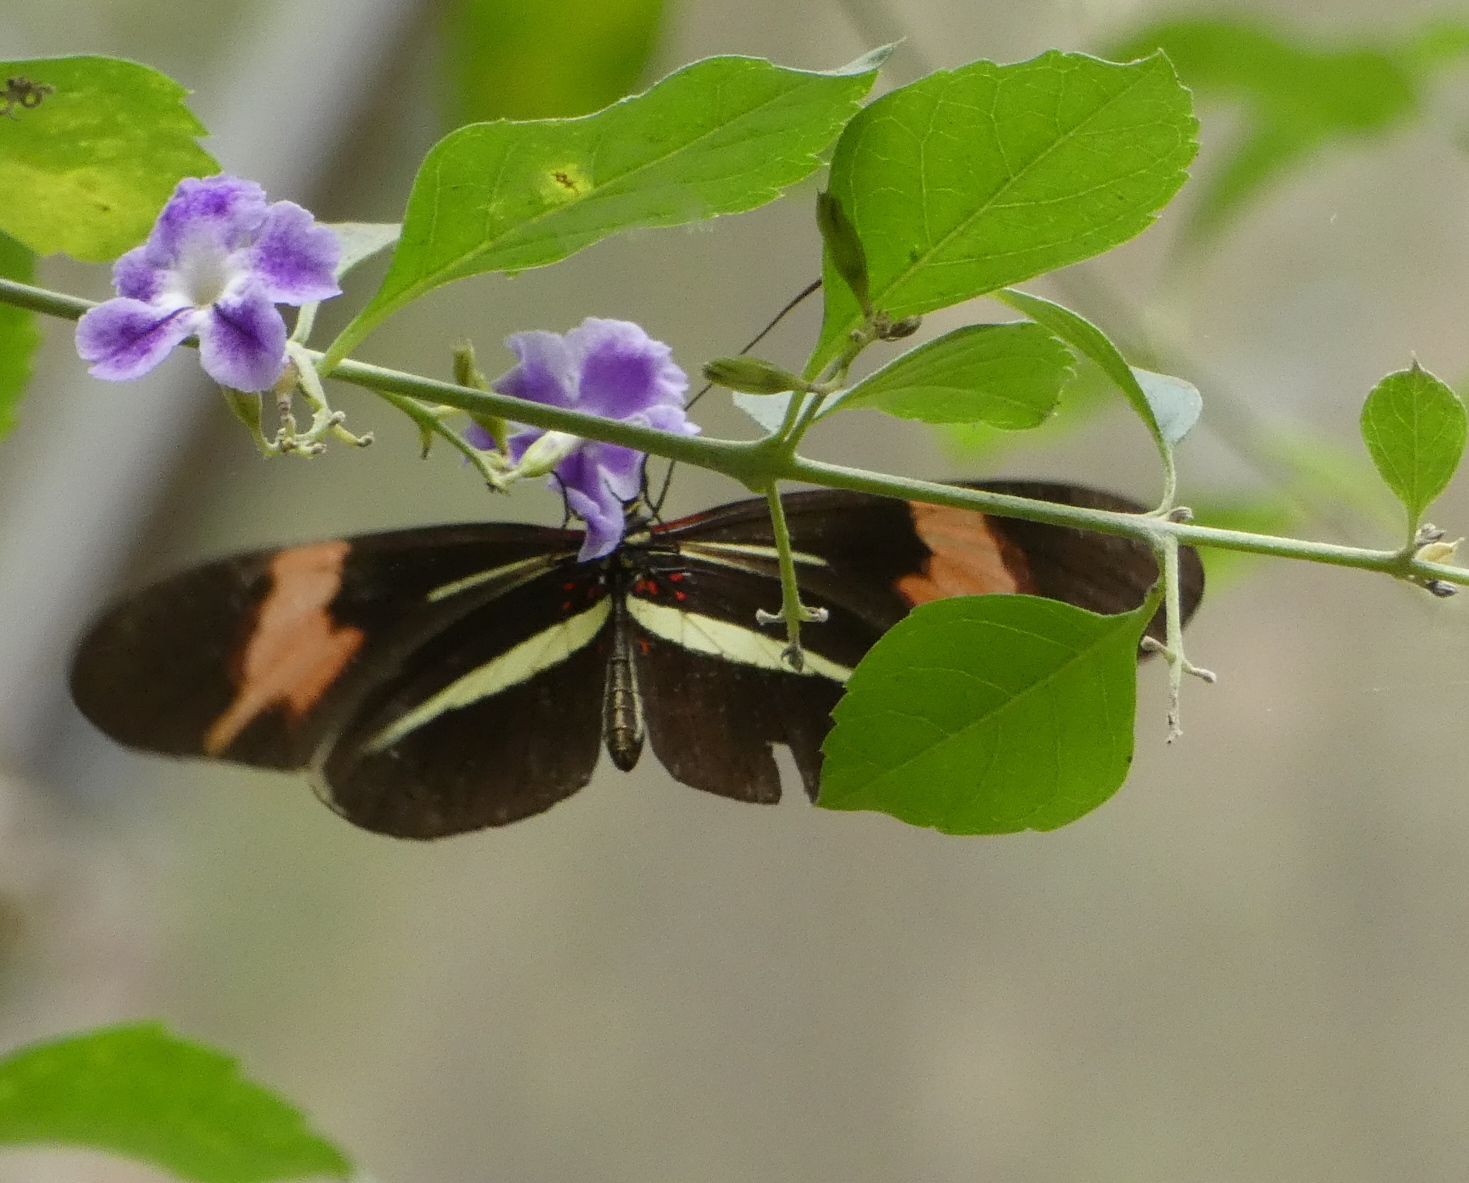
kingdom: Animalia
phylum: Arthropoda
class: Insecta
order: Lepidoptera
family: Nymphalidae
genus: Heliconius
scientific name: Heliconius erato
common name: Common patch longwing
